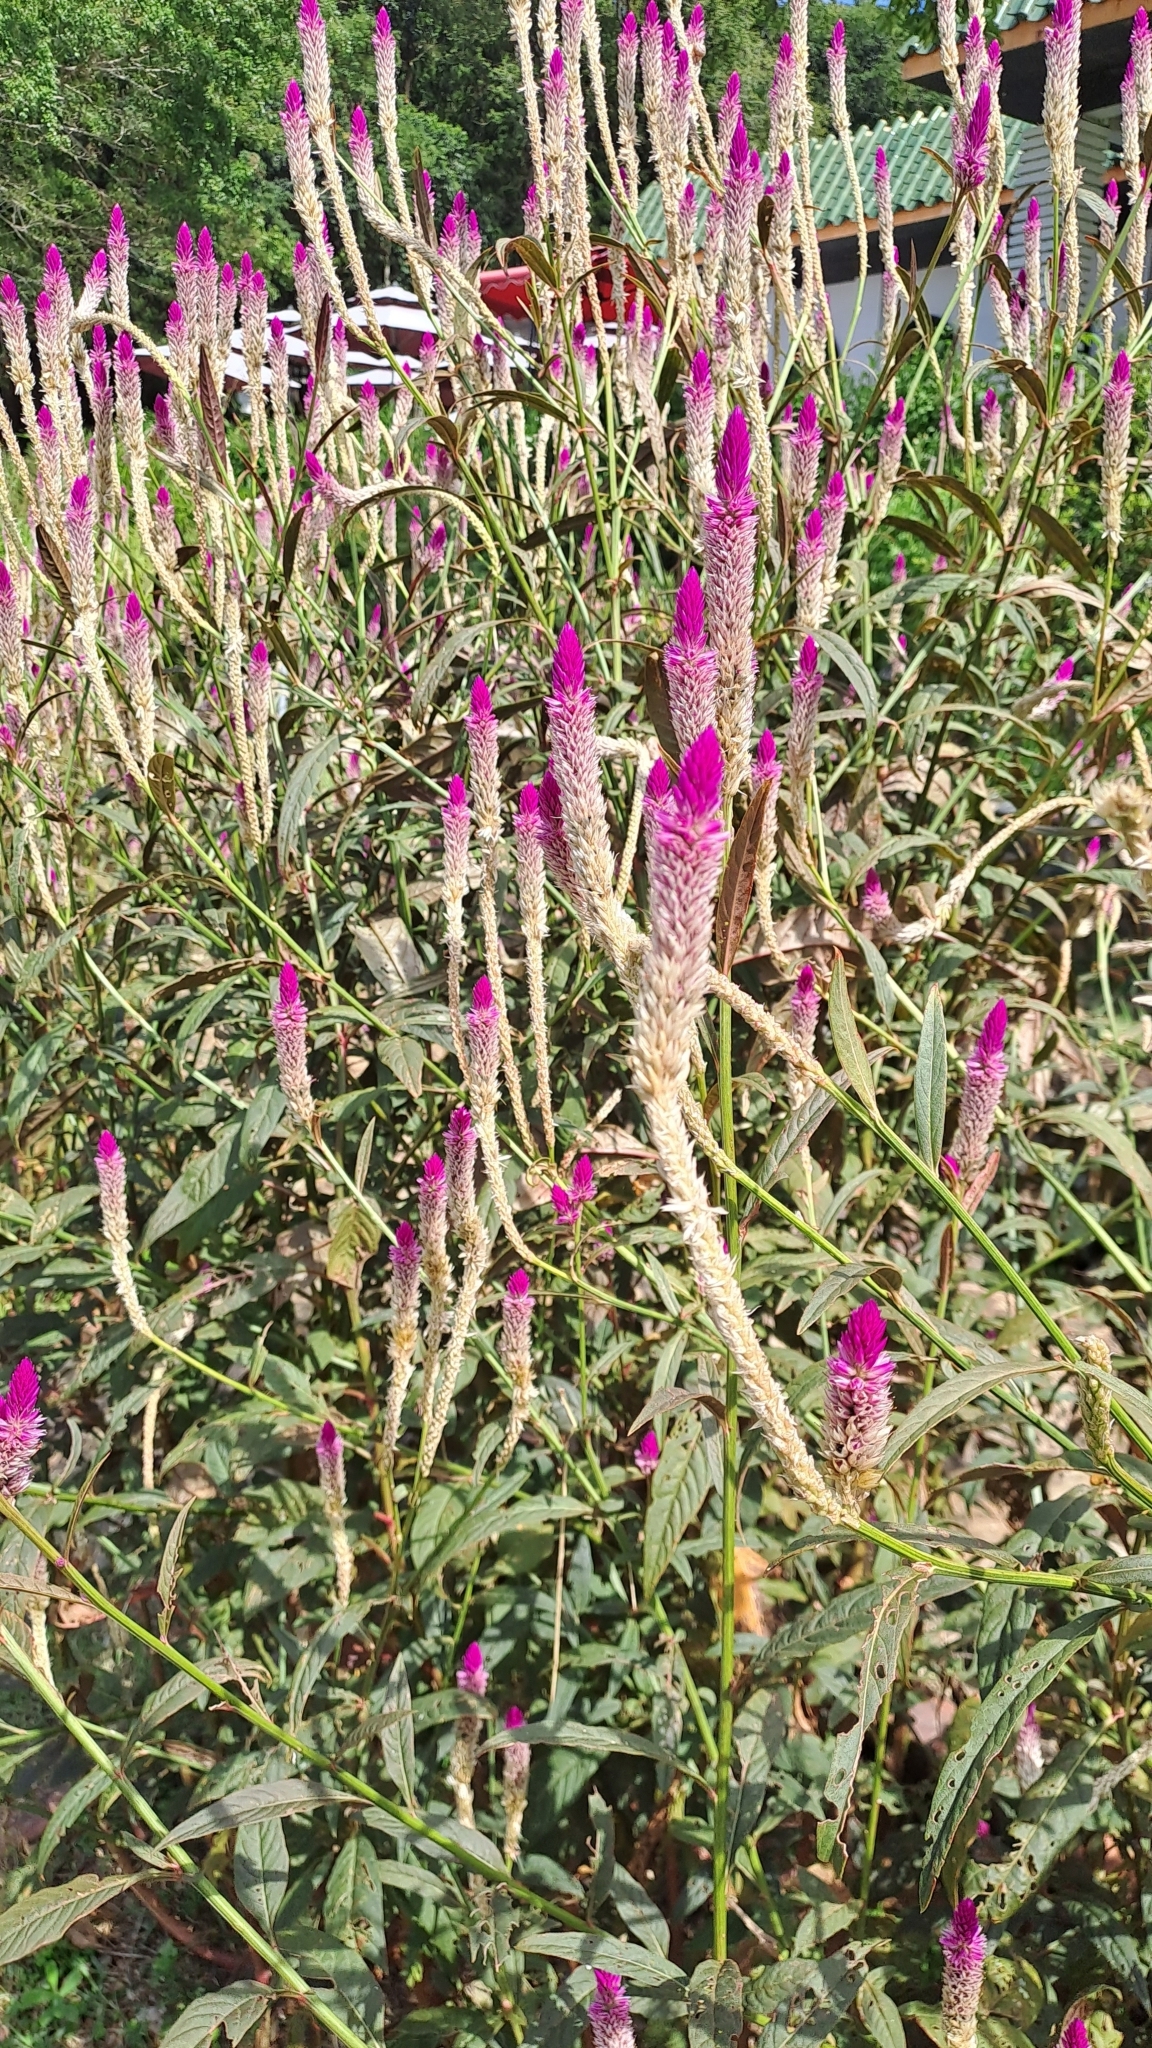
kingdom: Plantae
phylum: Tracheophyta
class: Magnoliopsida
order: Caryophyllales
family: Amaranthaceae
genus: Celosia
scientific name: Celosia argentea
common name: Feather cockscomb
